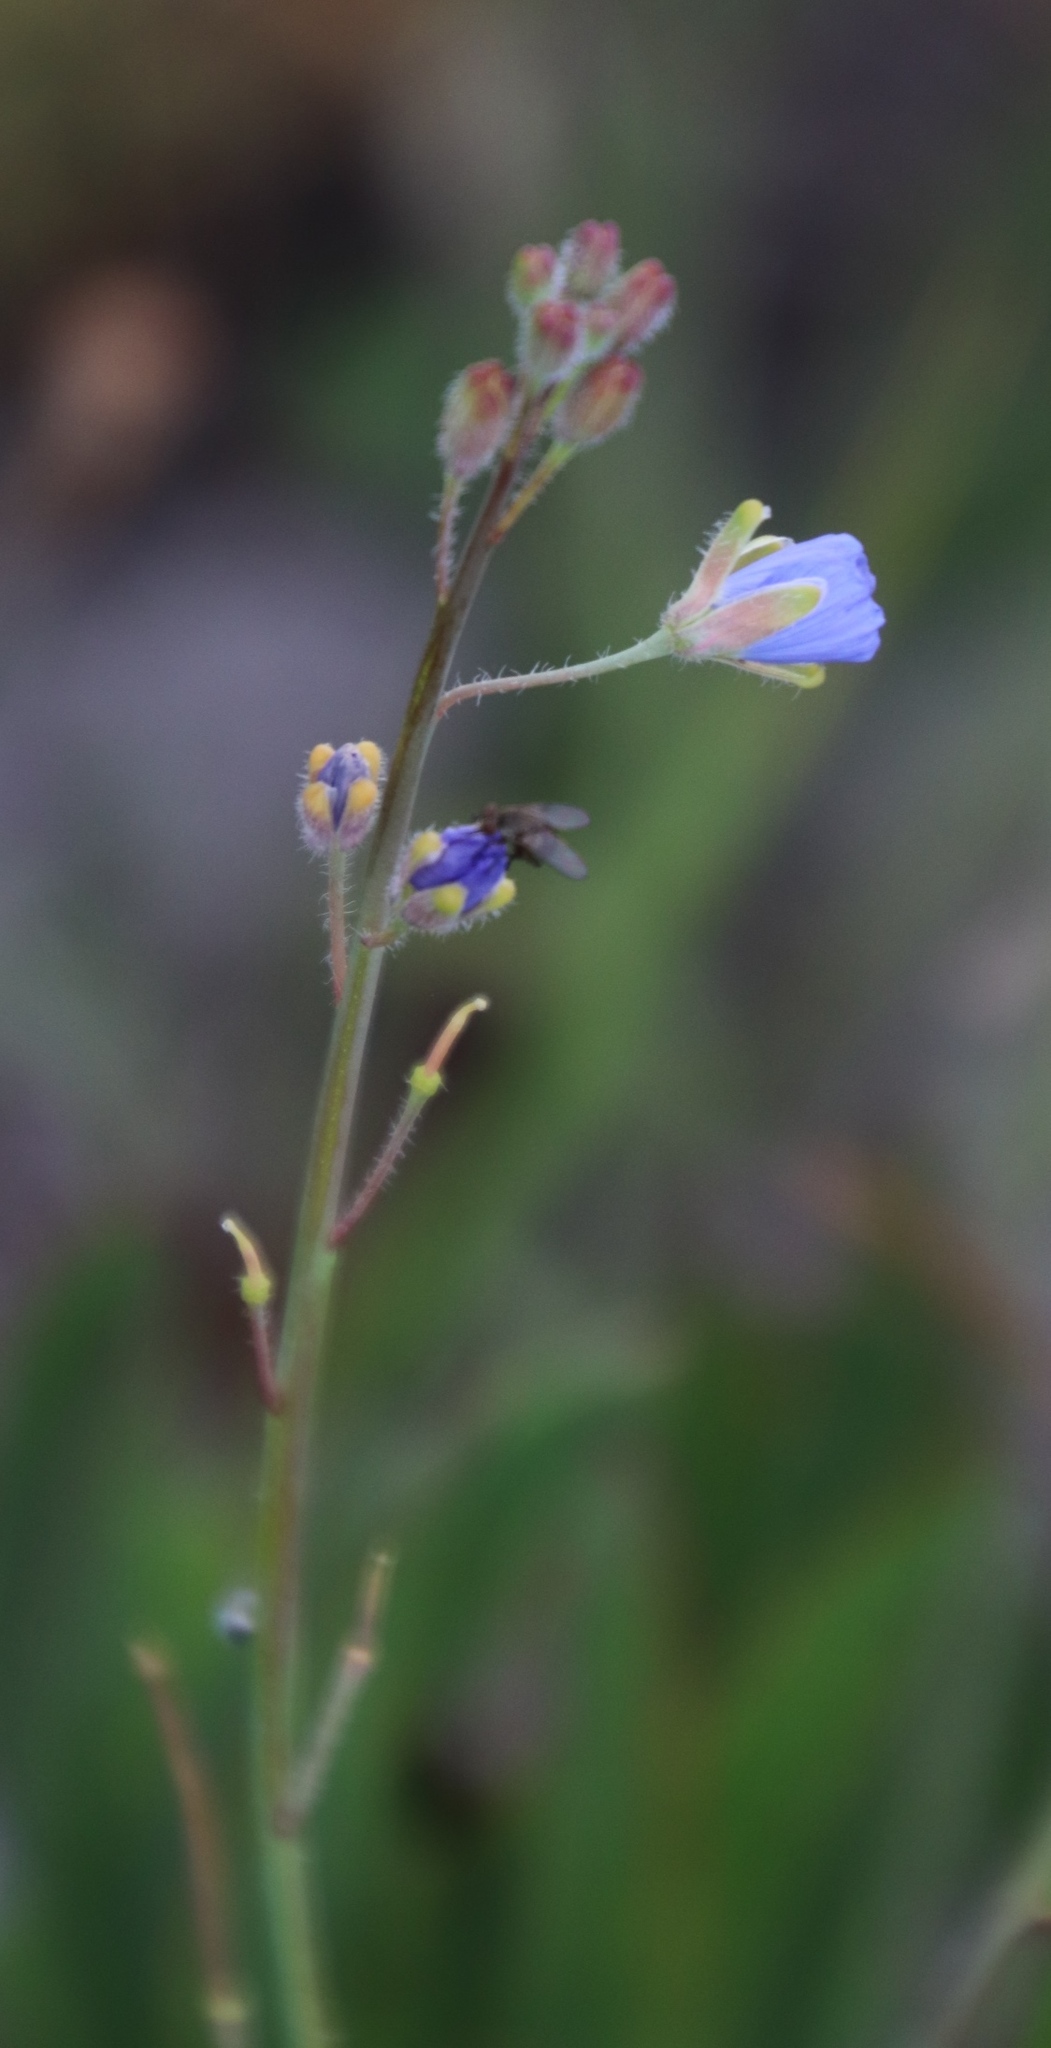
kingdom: Plantae
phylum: Tracheophyta
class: Magnoliopsida
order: Brassicales
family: Brassicaceae
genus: Heliophila
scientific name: Heliophila africana
